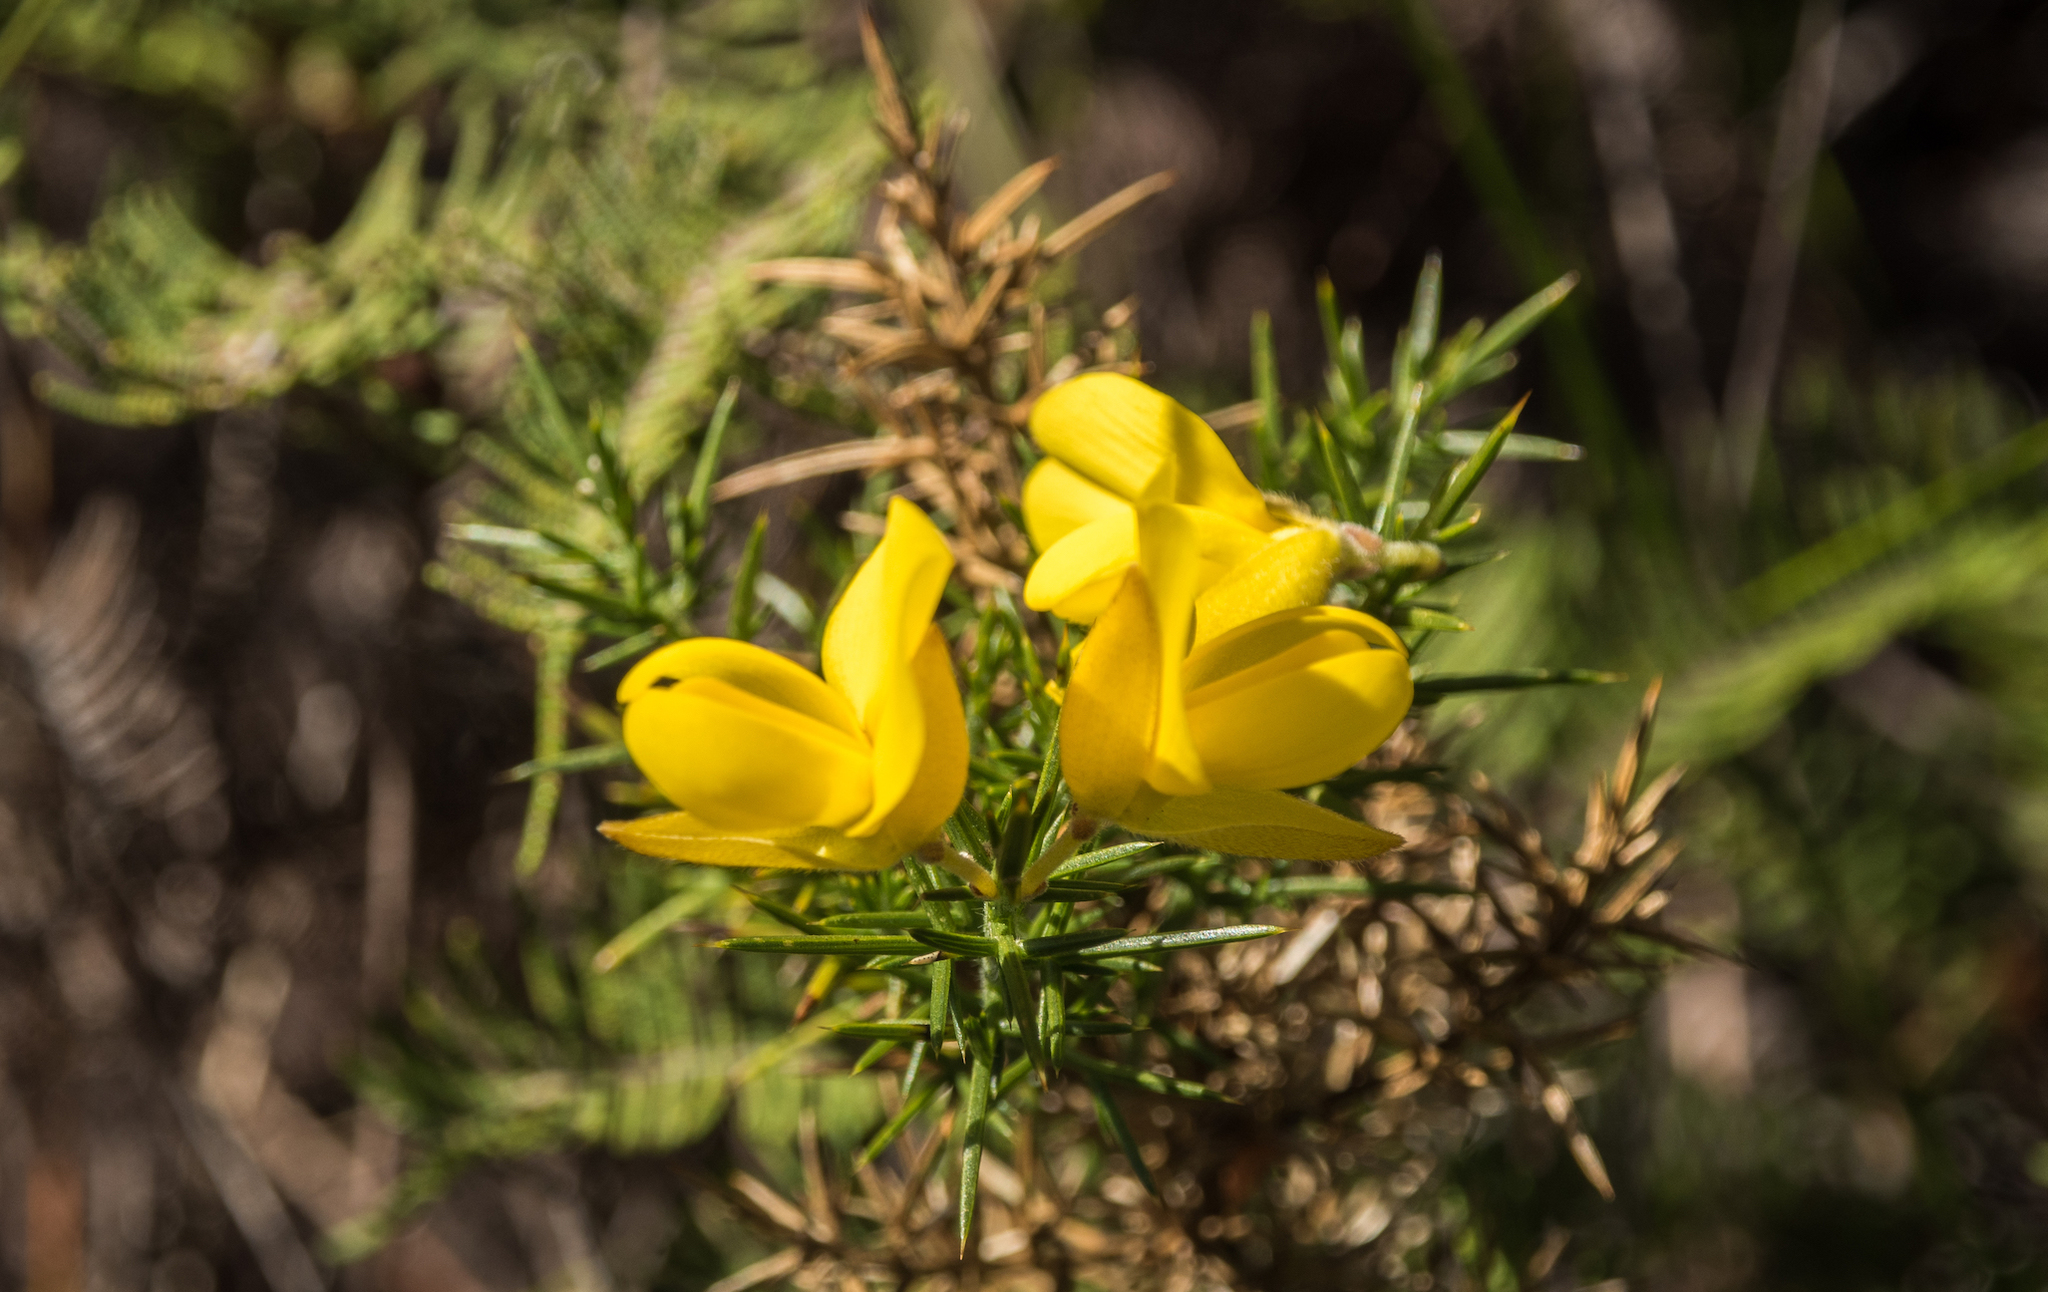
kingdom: Plantae
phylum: Tracheophyta
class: Magnoliopsida
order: Fabales
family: Fabaceae
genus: Ulex
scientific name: Ulex europaeus
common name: Common gorse
